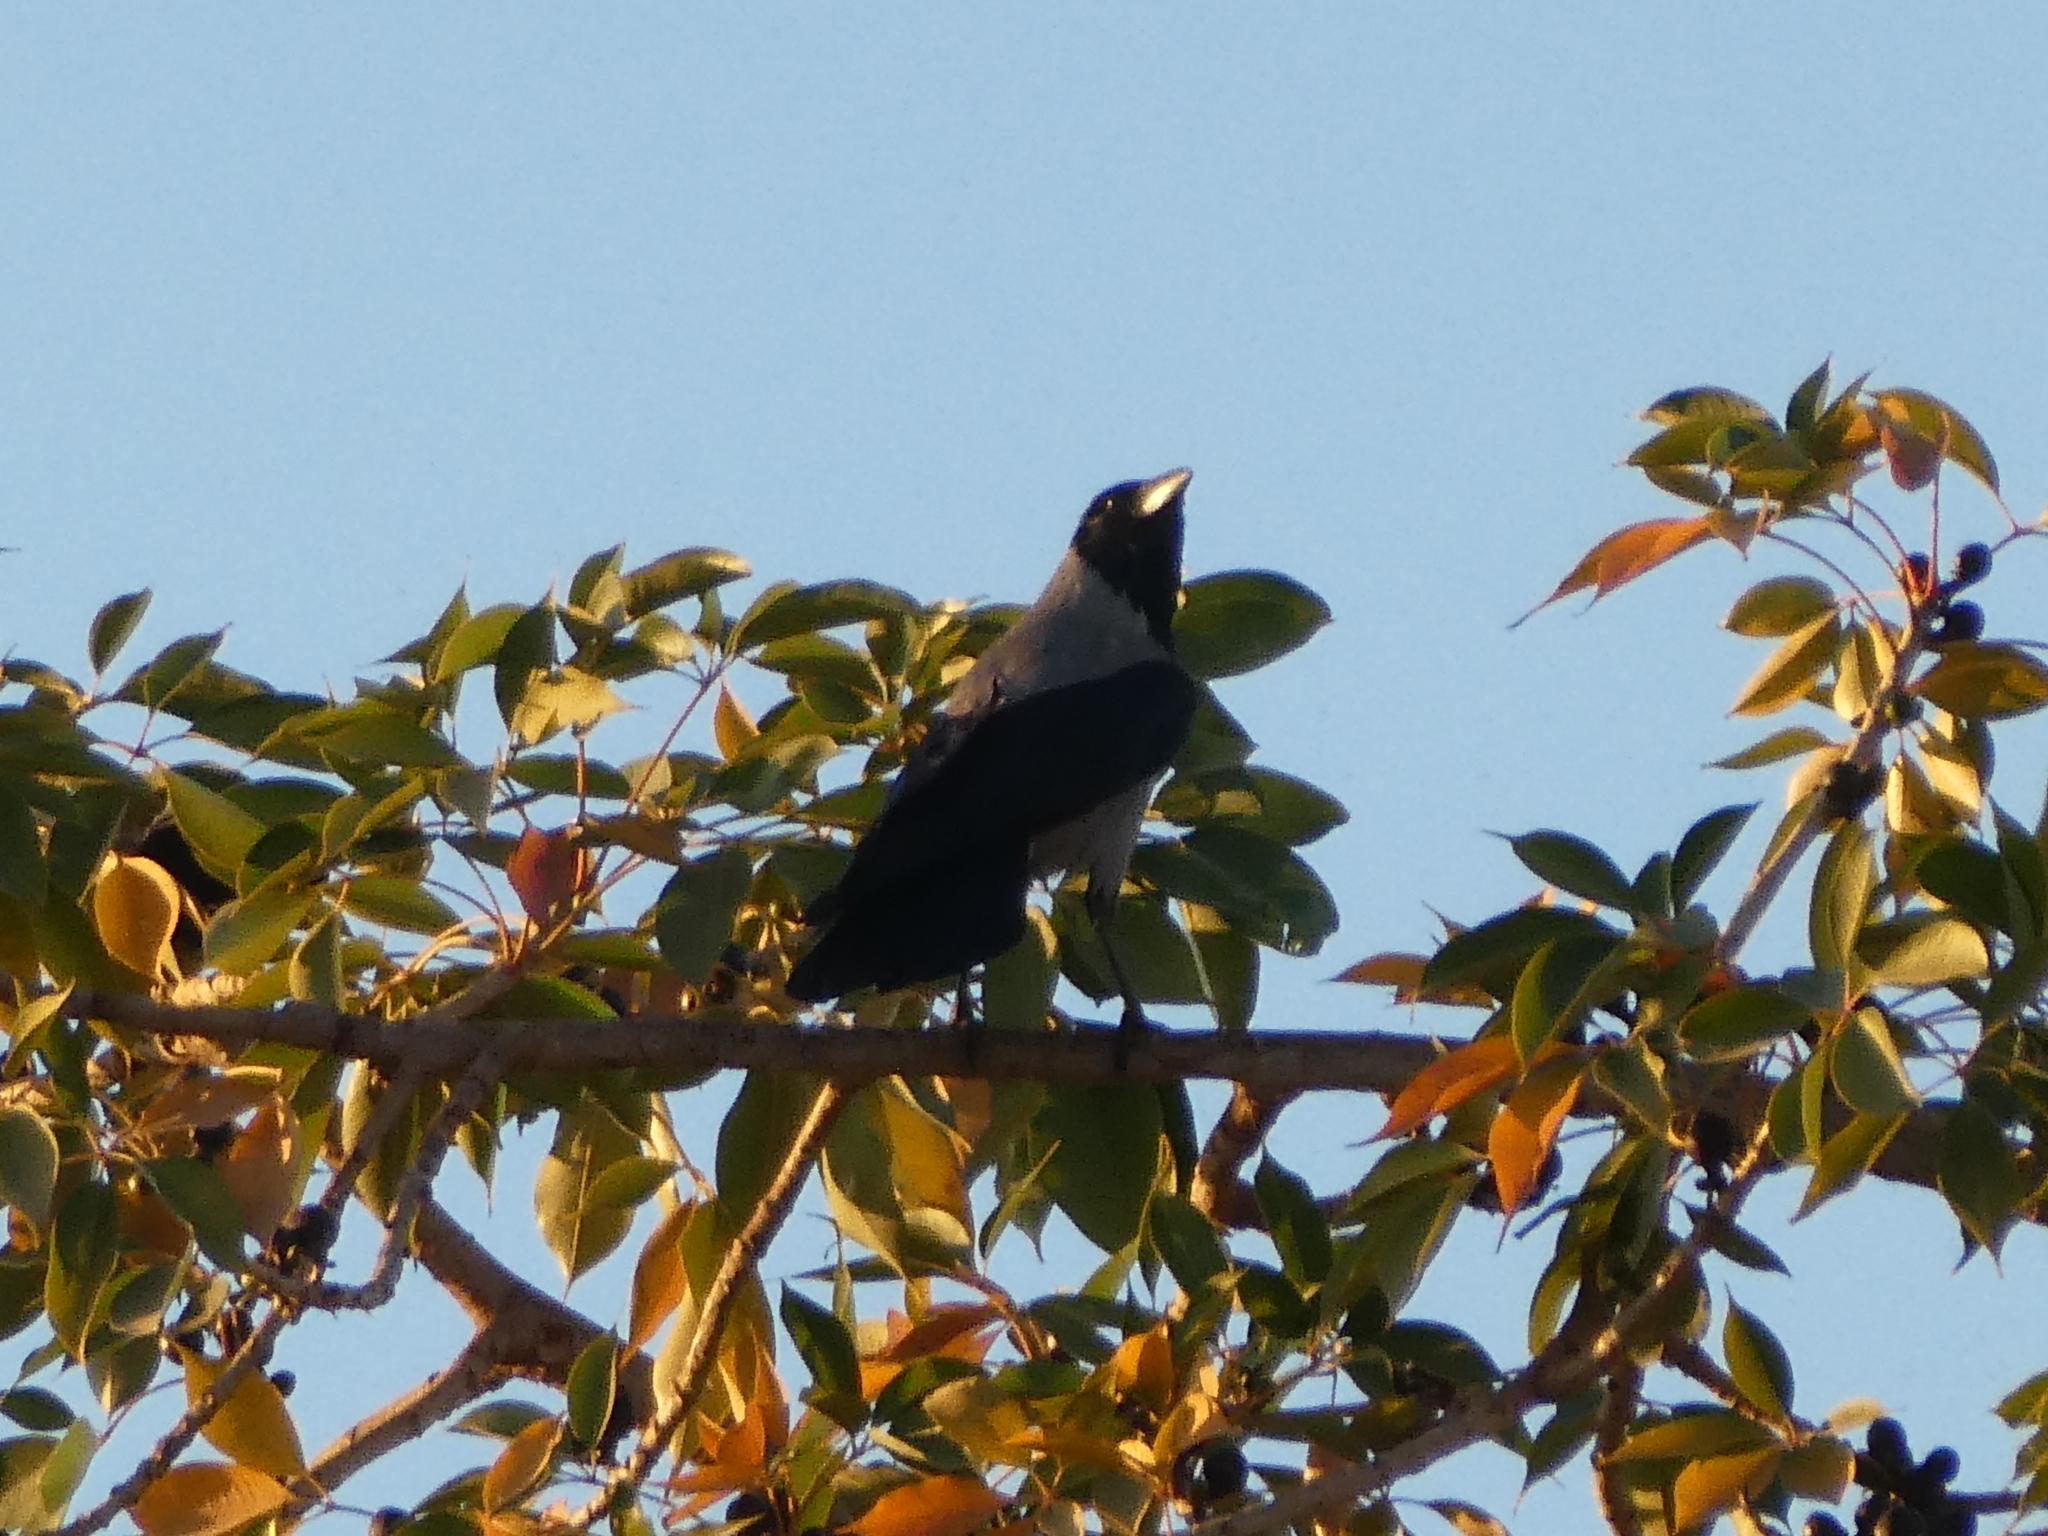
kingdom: Animalia
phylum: Chordata
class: Aves
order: Passeriformes
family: Corvidae
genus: Corvus
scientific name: Corvus cornix
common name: Hooded crow
